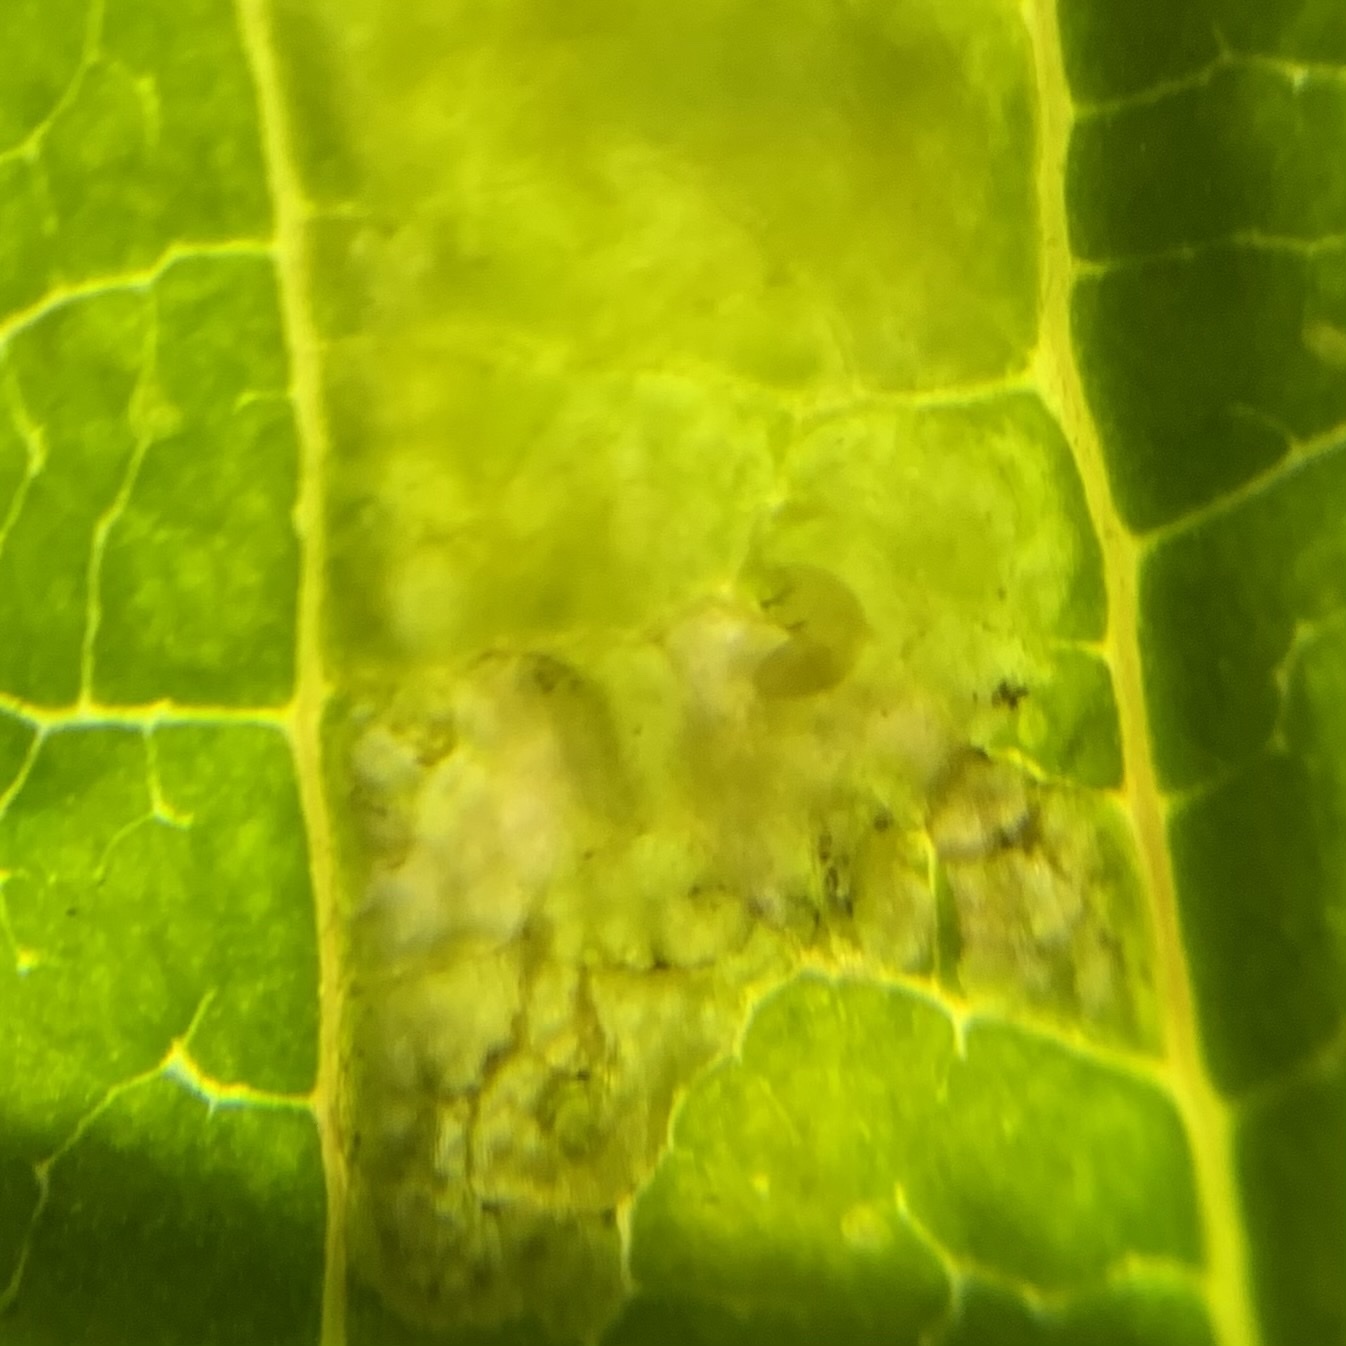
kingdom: Animalia
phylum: Arthropoda
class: Insecta
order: Diptera
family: Agromyzidae
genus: Liriomyza
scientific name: Liriomyza asclepiadis
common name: Milkweed leaf-miner fly
